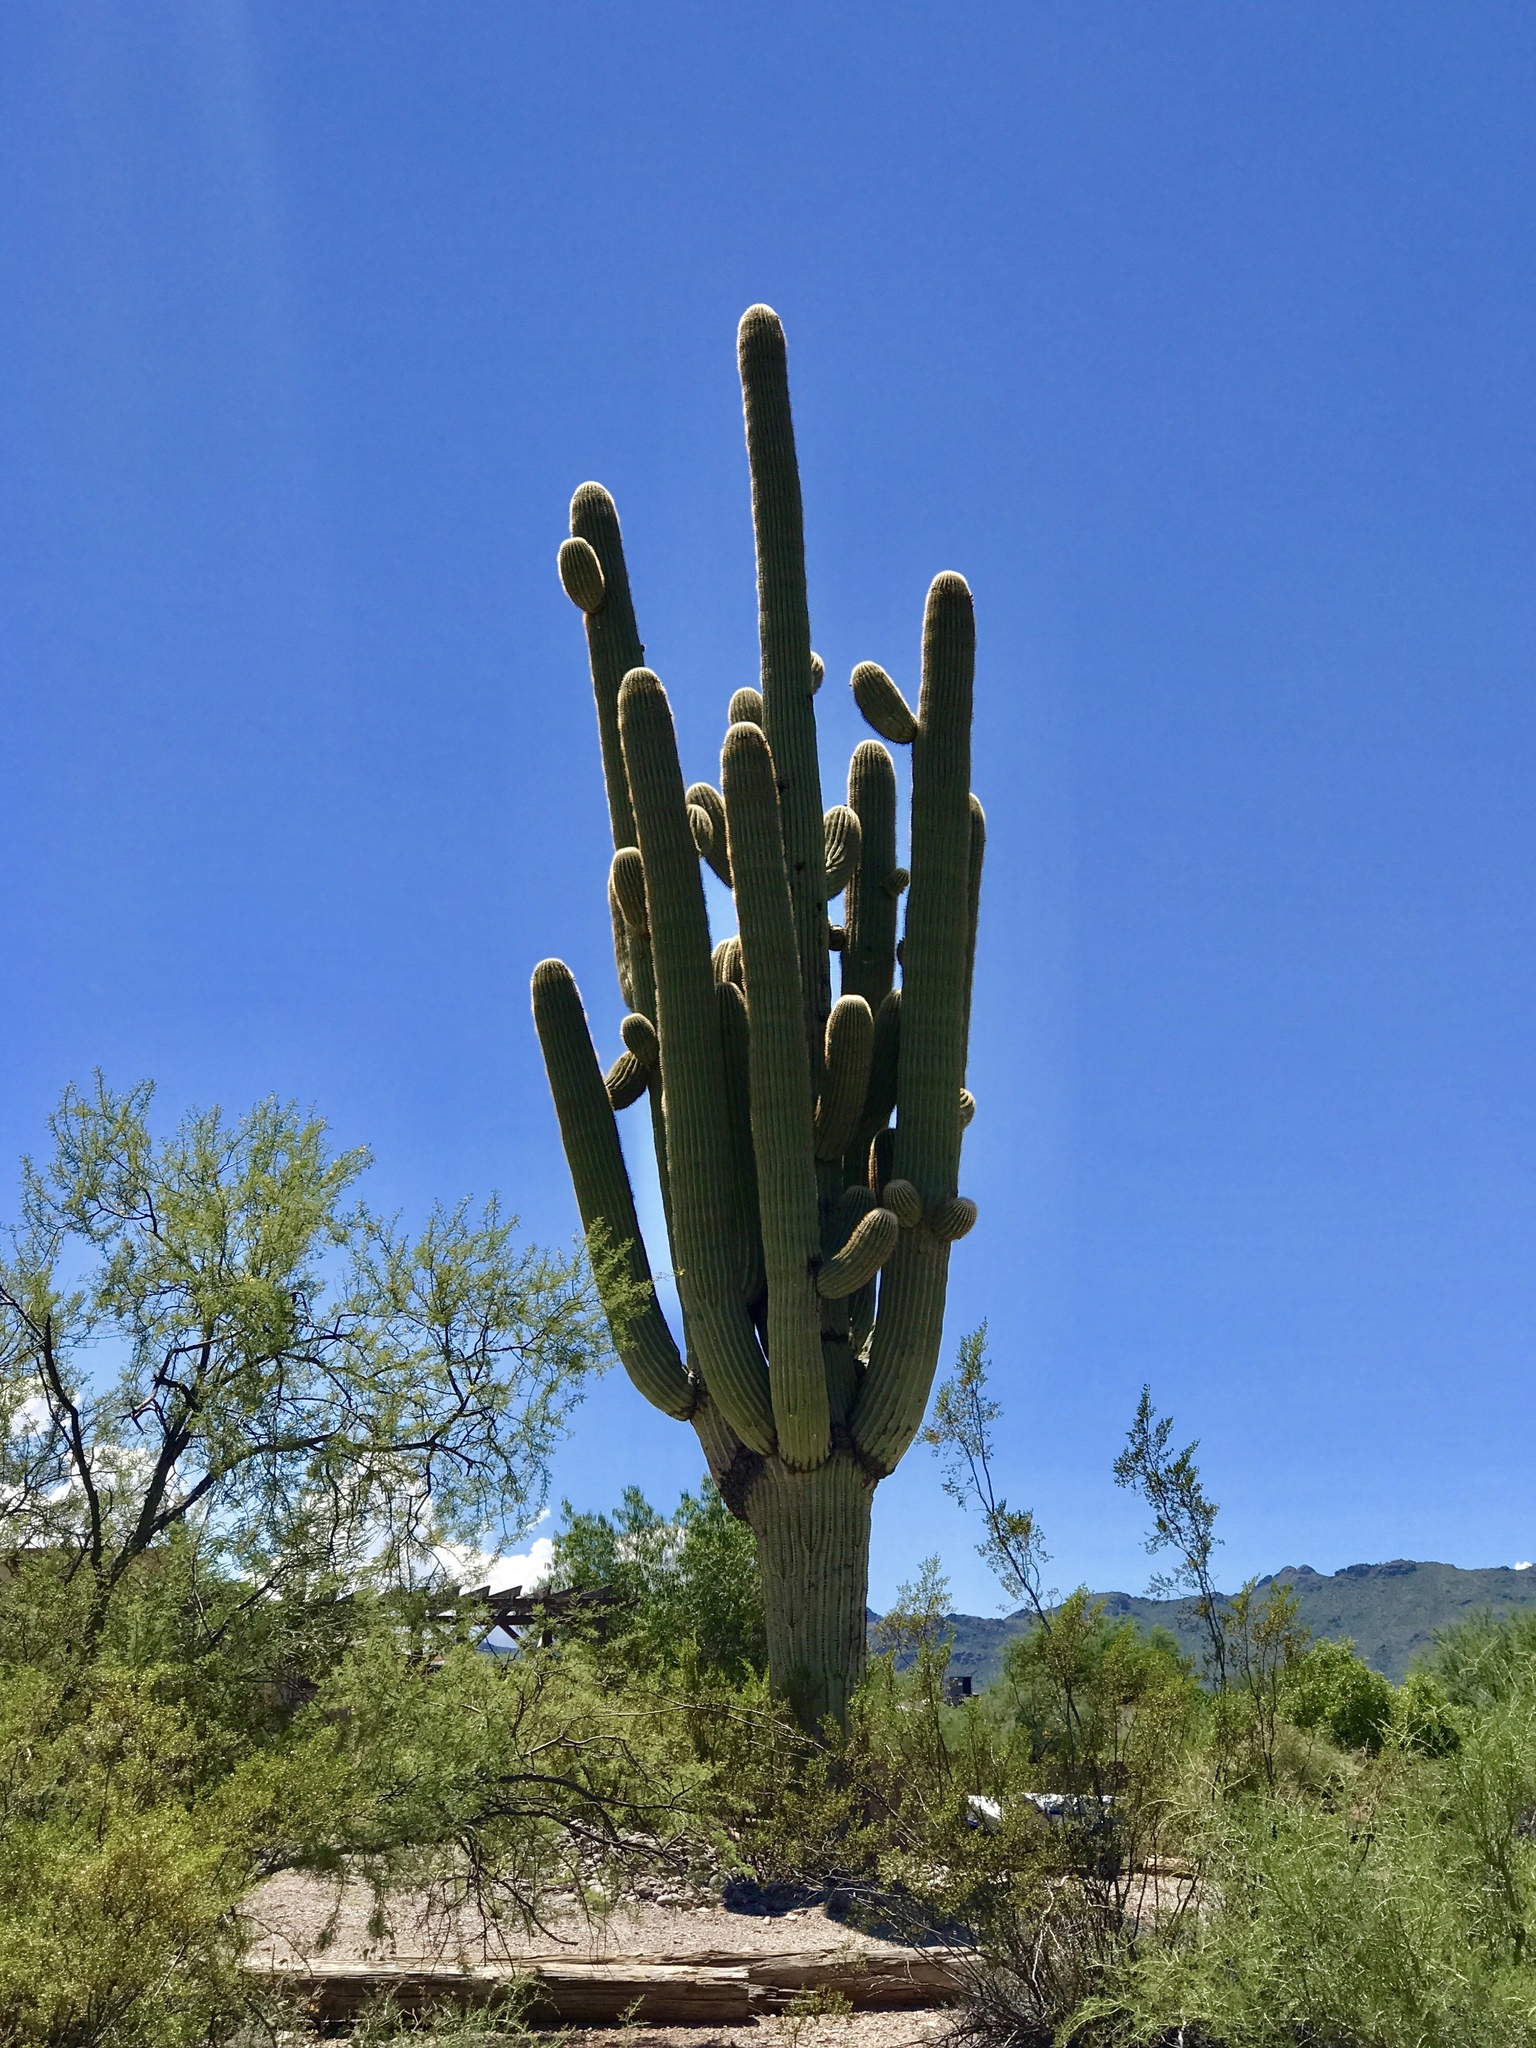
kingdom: Plantae
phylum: Tracheophyta
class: Magnoliopsida
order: Caryophyllales
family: Cactaceae
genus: Carnegiea
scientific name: Carnegiea gigantea
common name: Saguaro
